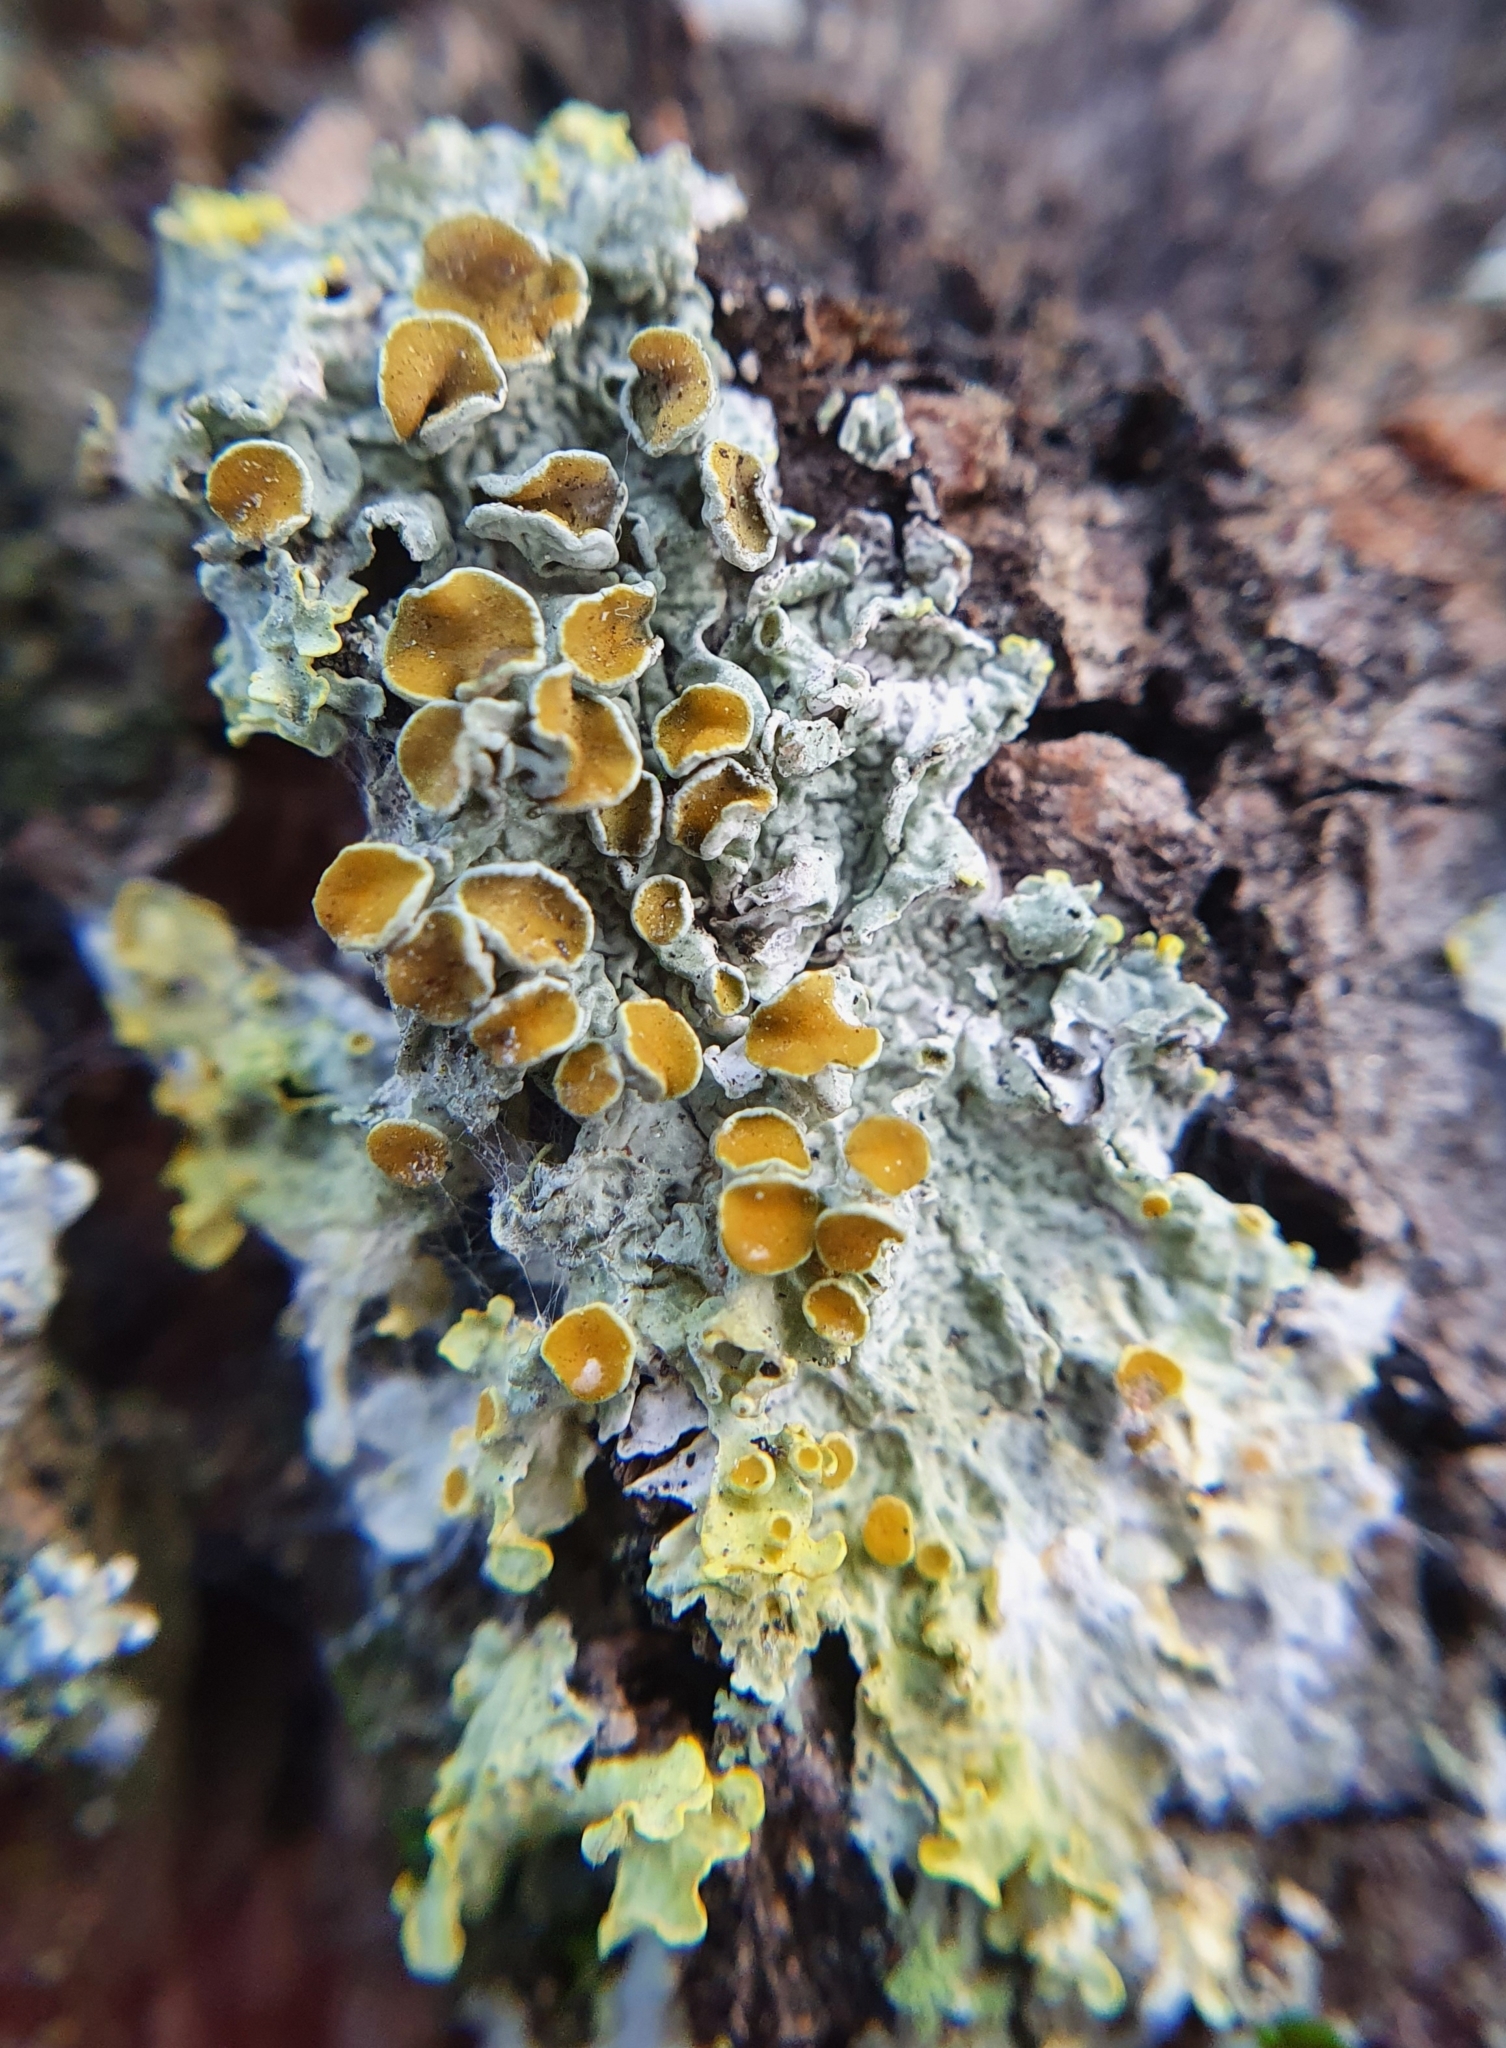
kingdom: Fungi
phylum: Ascomycota
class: Lecanoromycetes
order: Teloschistales
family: Teloschistaceae
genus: Xanthoria
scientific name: Xanthoria parietina
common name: Common orange lichen
